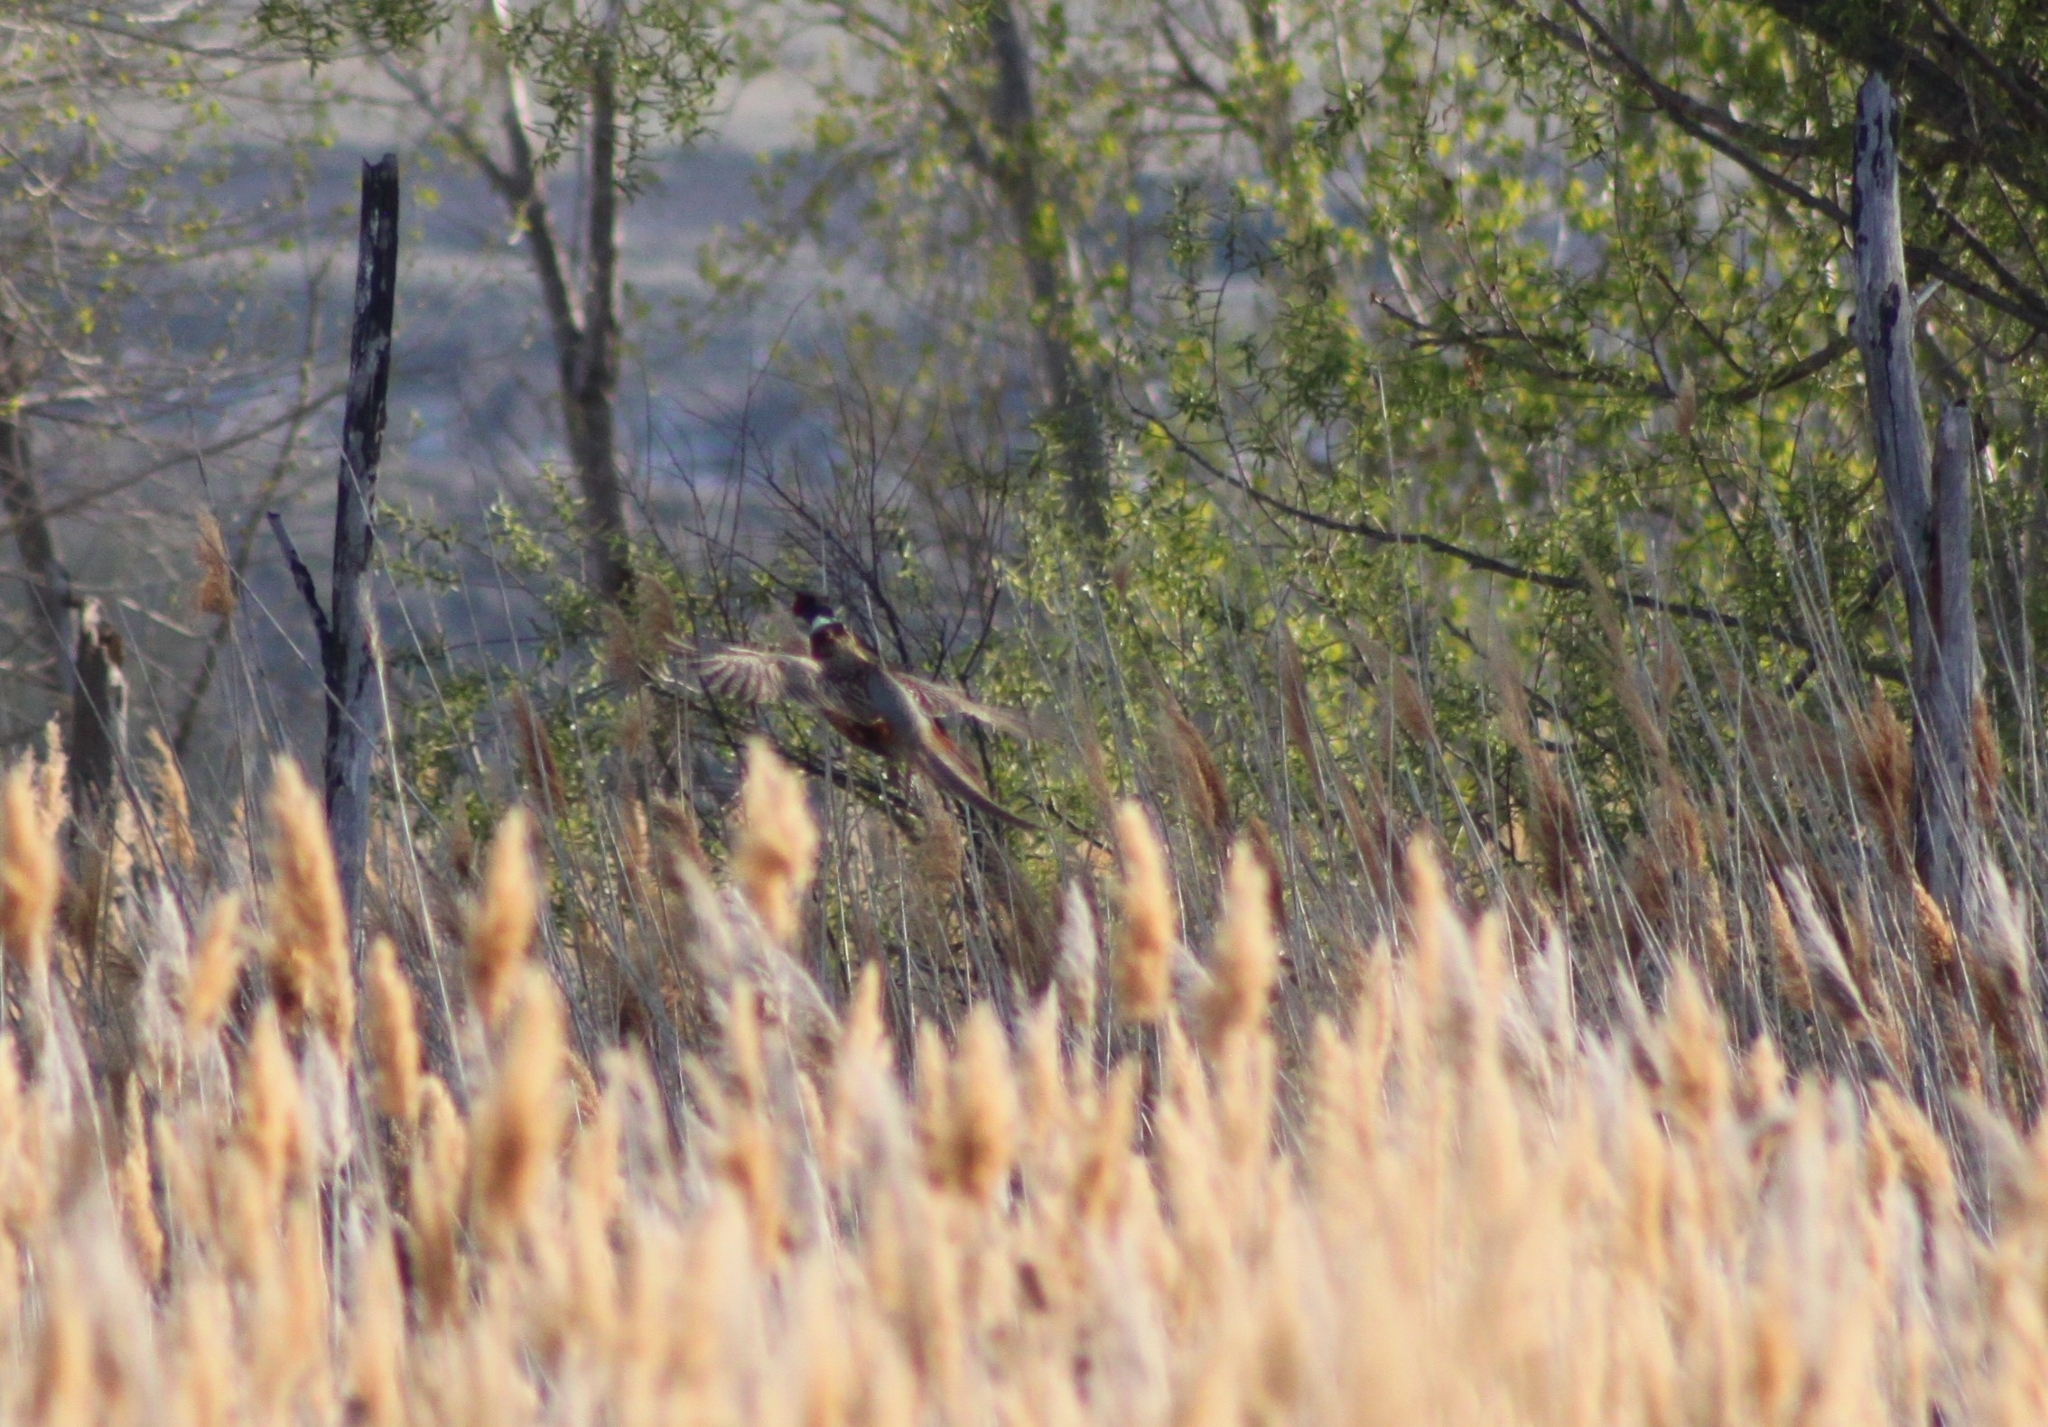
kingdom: Animalia
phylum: Chordata
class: Aves
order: Galliformes
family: Phasianidae
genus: Phasianus
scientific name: Phasianus colchicus
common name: Common pheasant
